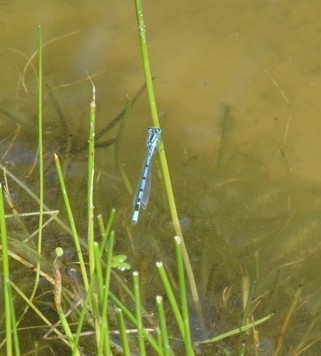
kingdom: Animalia
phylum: Arthropoda
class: Insecta
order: Odonata
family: Coenagrionidae
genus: Enallagma
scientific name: Enallagma cyathigerum
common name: Common blue damselfly
